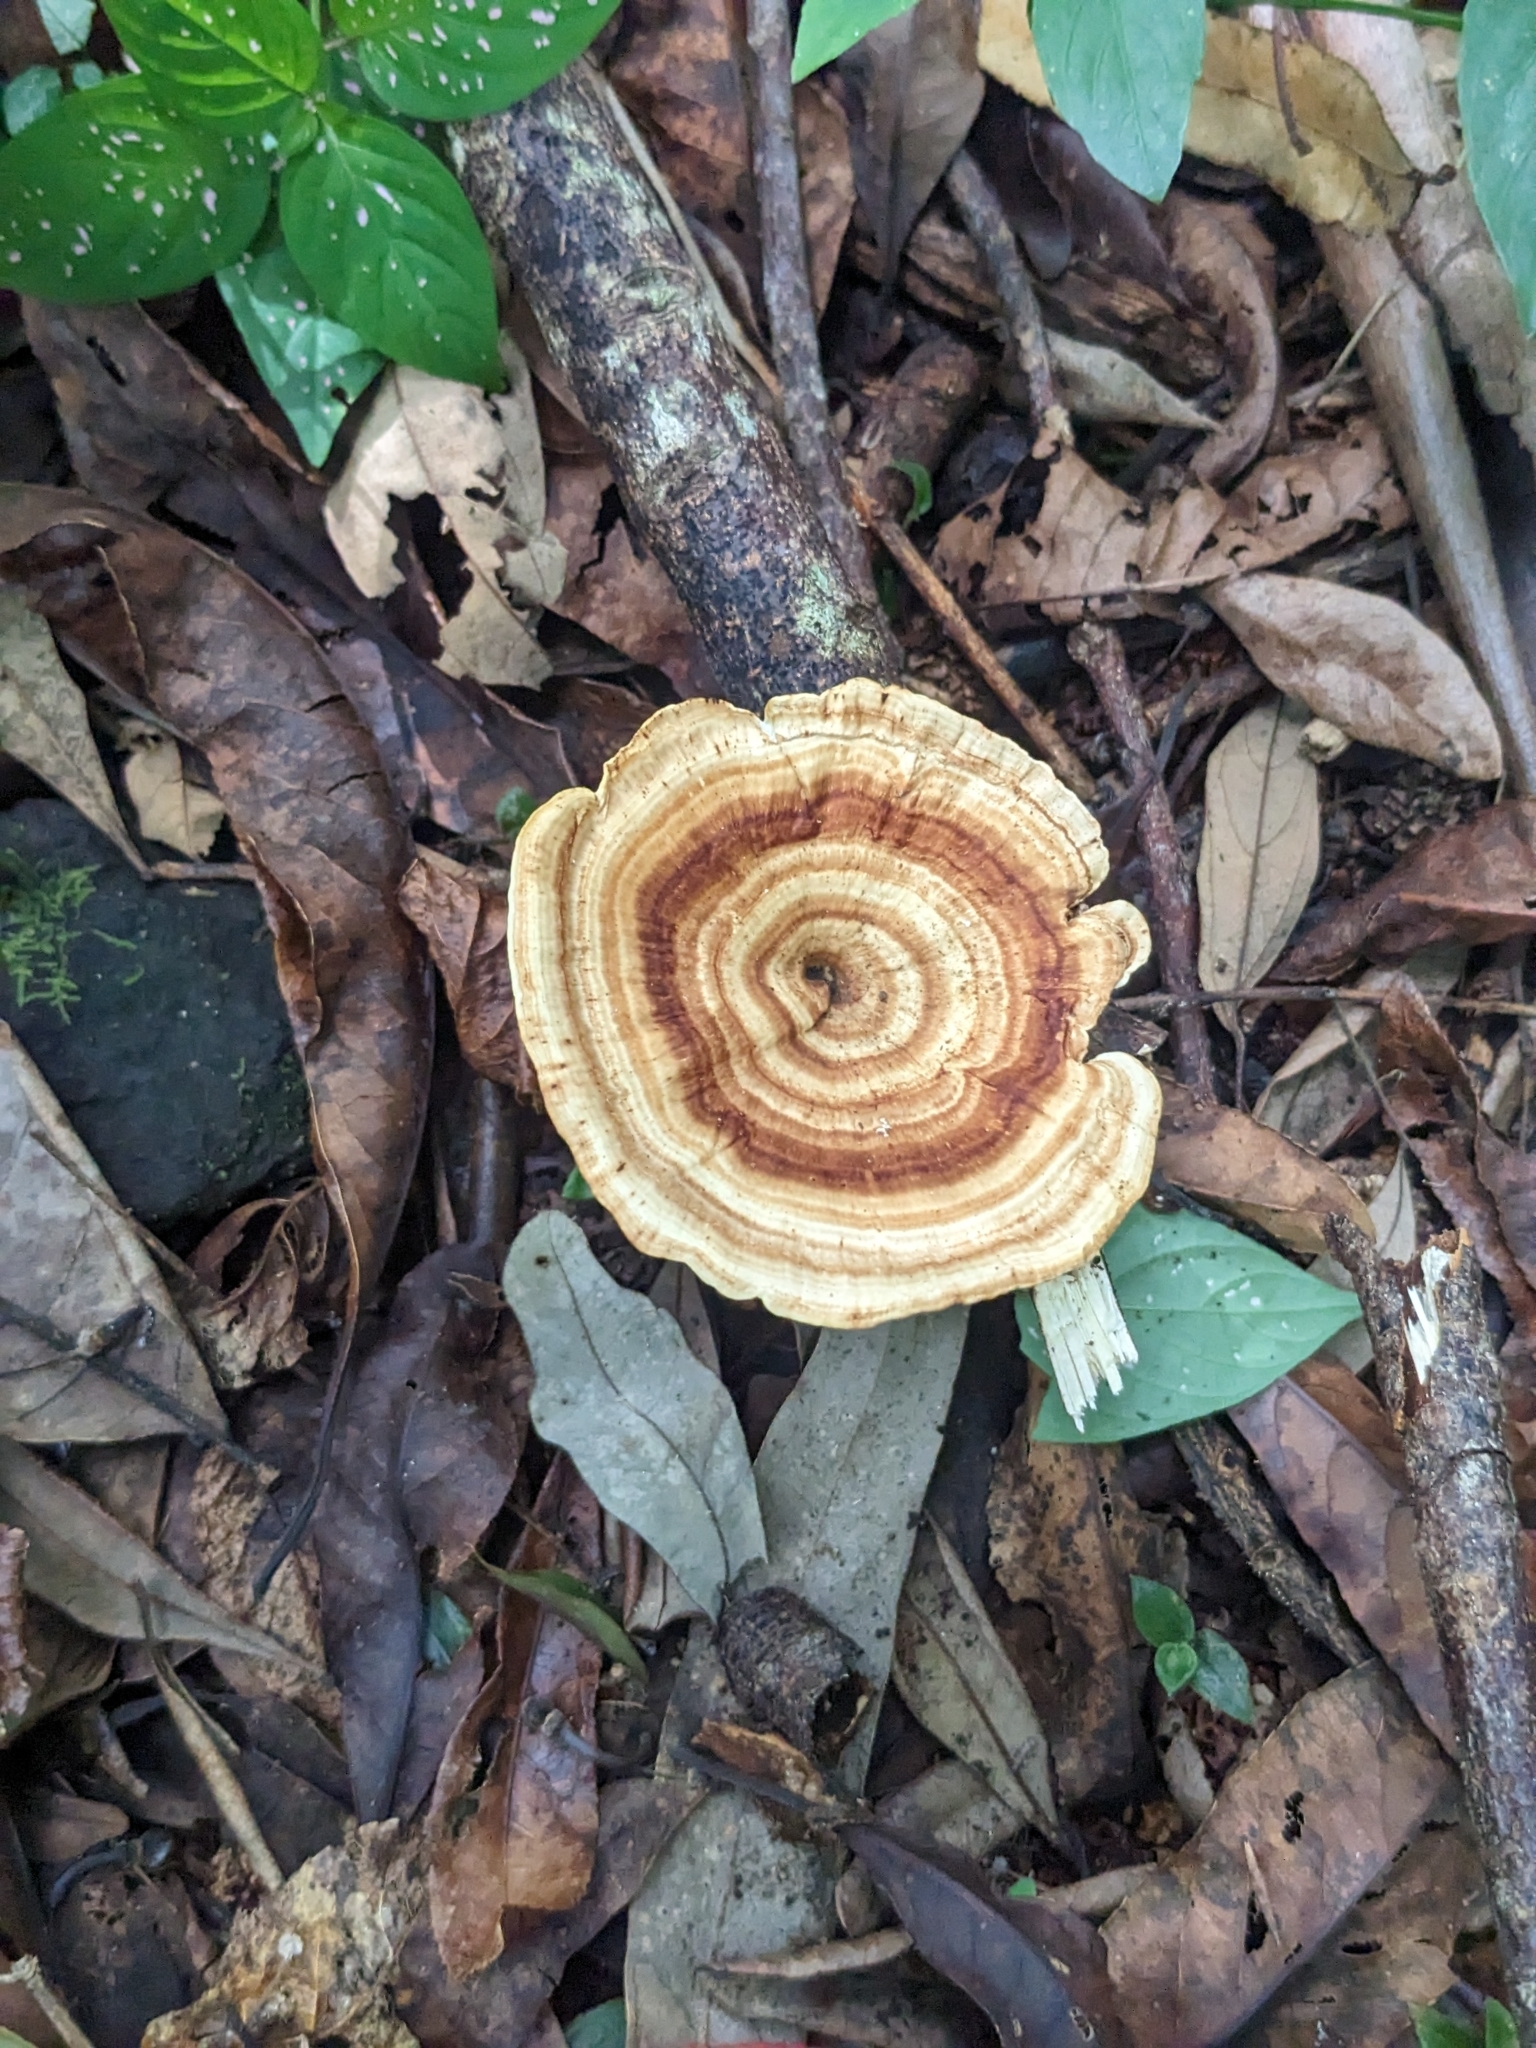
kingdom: Fungi
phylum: Basidiomycota
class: Agaricomycetes
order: Polyporales
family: Polyporaceae
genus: Microporus
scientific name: Microporus xanthopus
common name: Yellow-stemmed micropore
